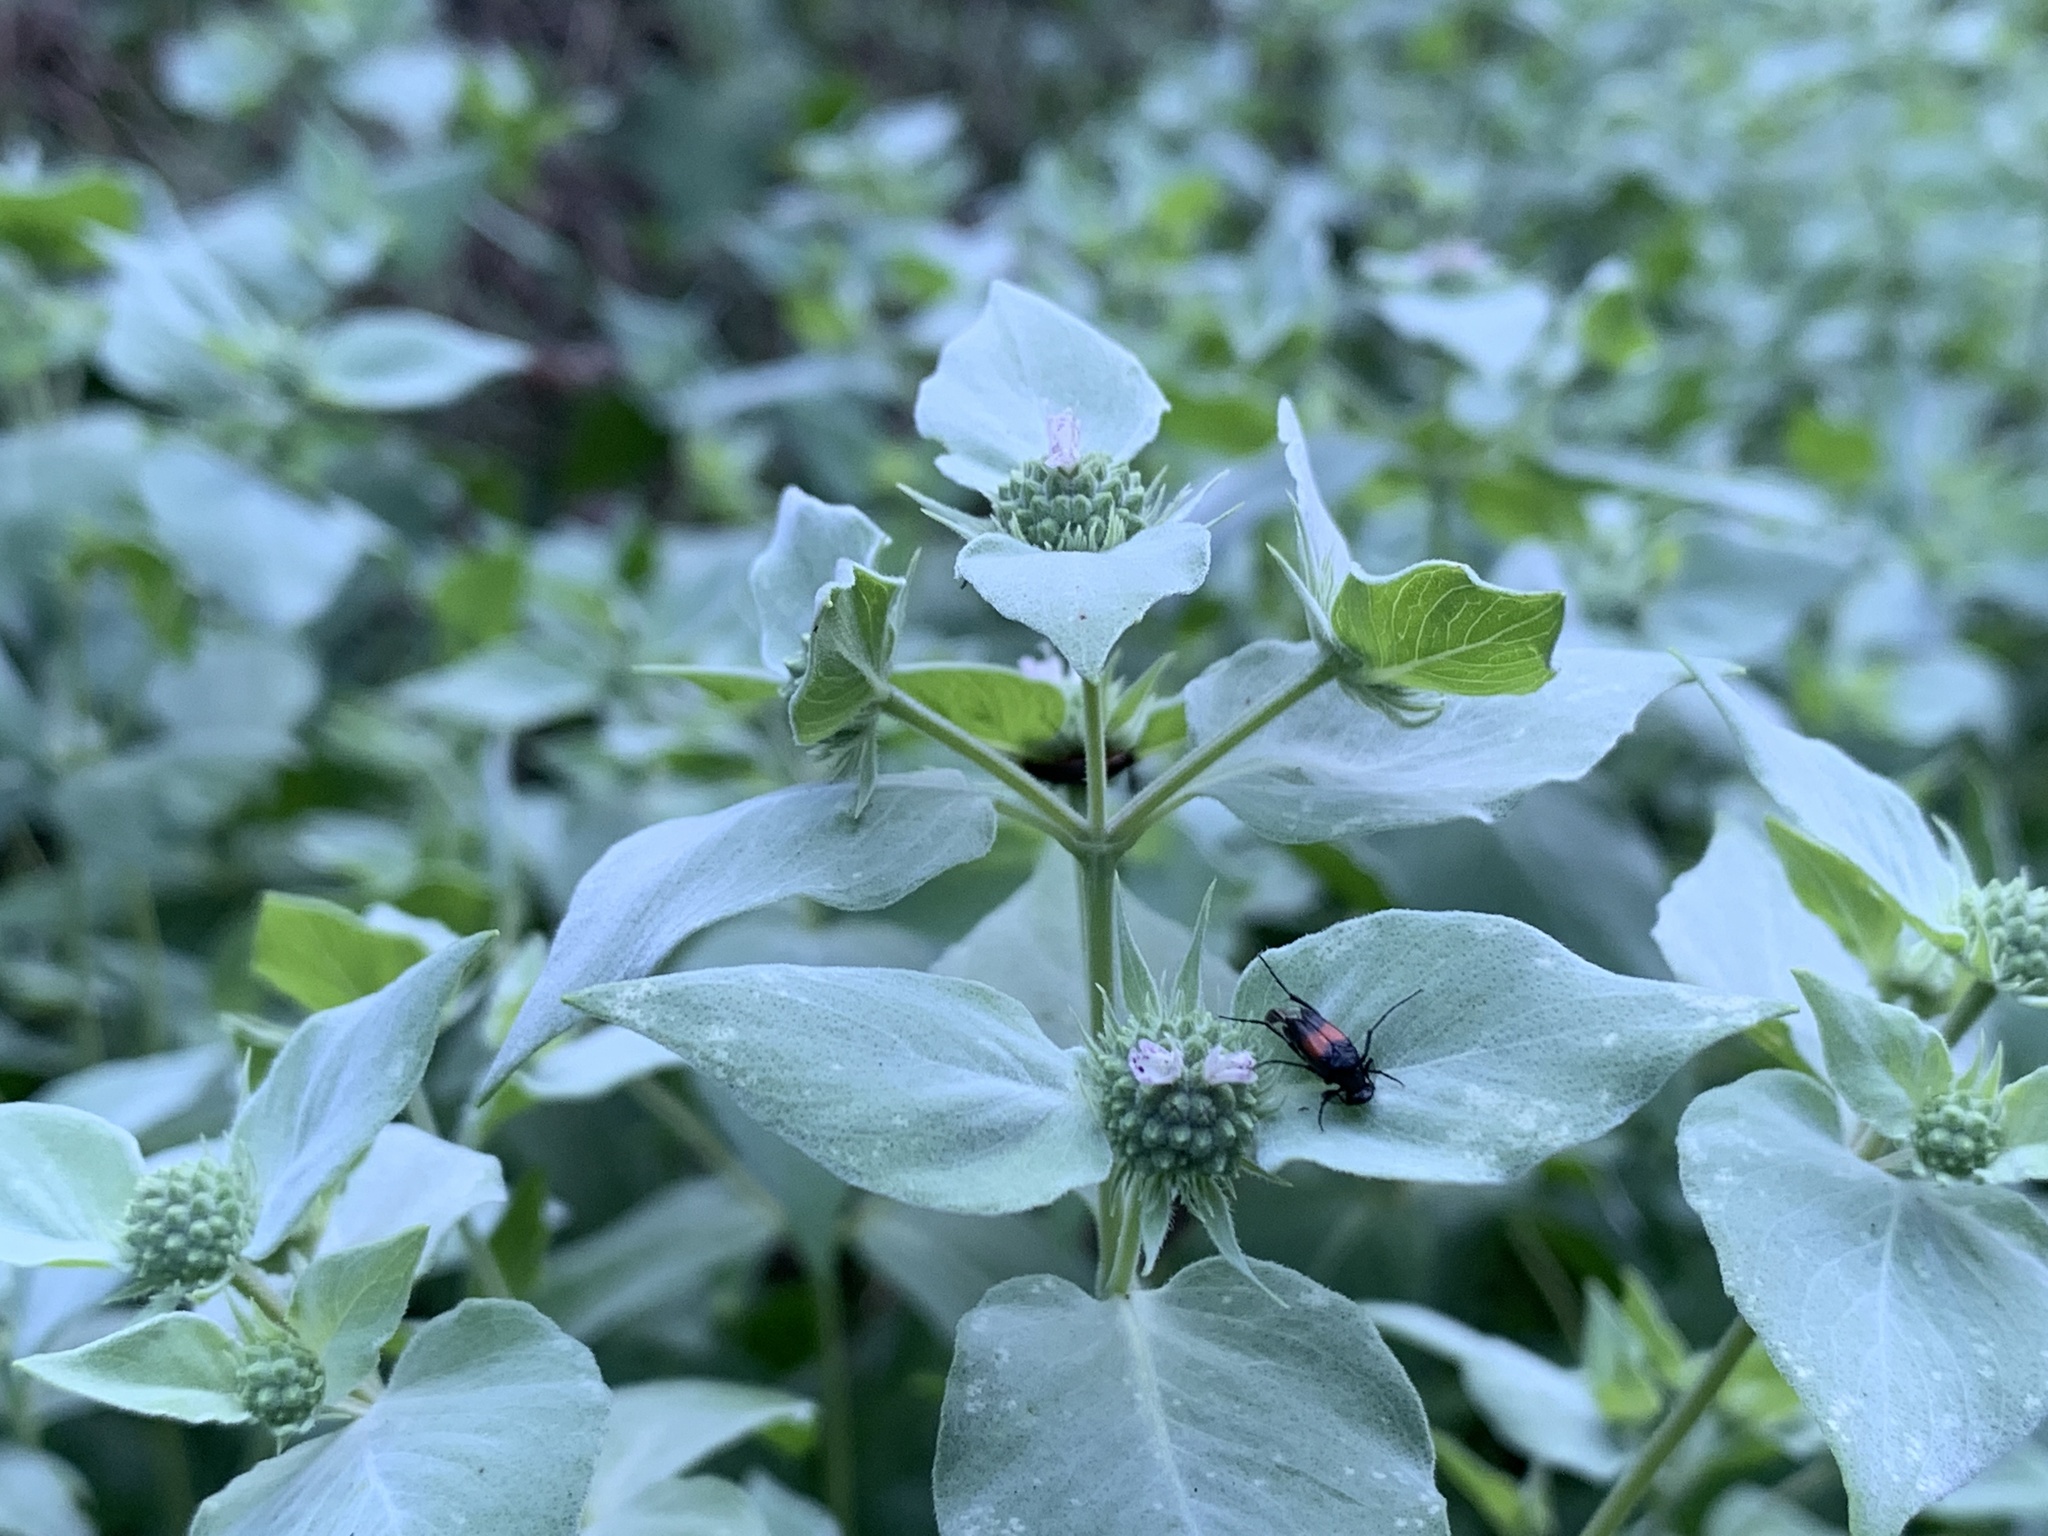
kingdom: Plantae
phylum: Tracheophyta
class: Magnoliopsida
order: Lamiales
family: Lamiaceae
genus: Pycnanthemum
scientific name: Pycnanthemum muticum
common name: Blunt mountain-mint
